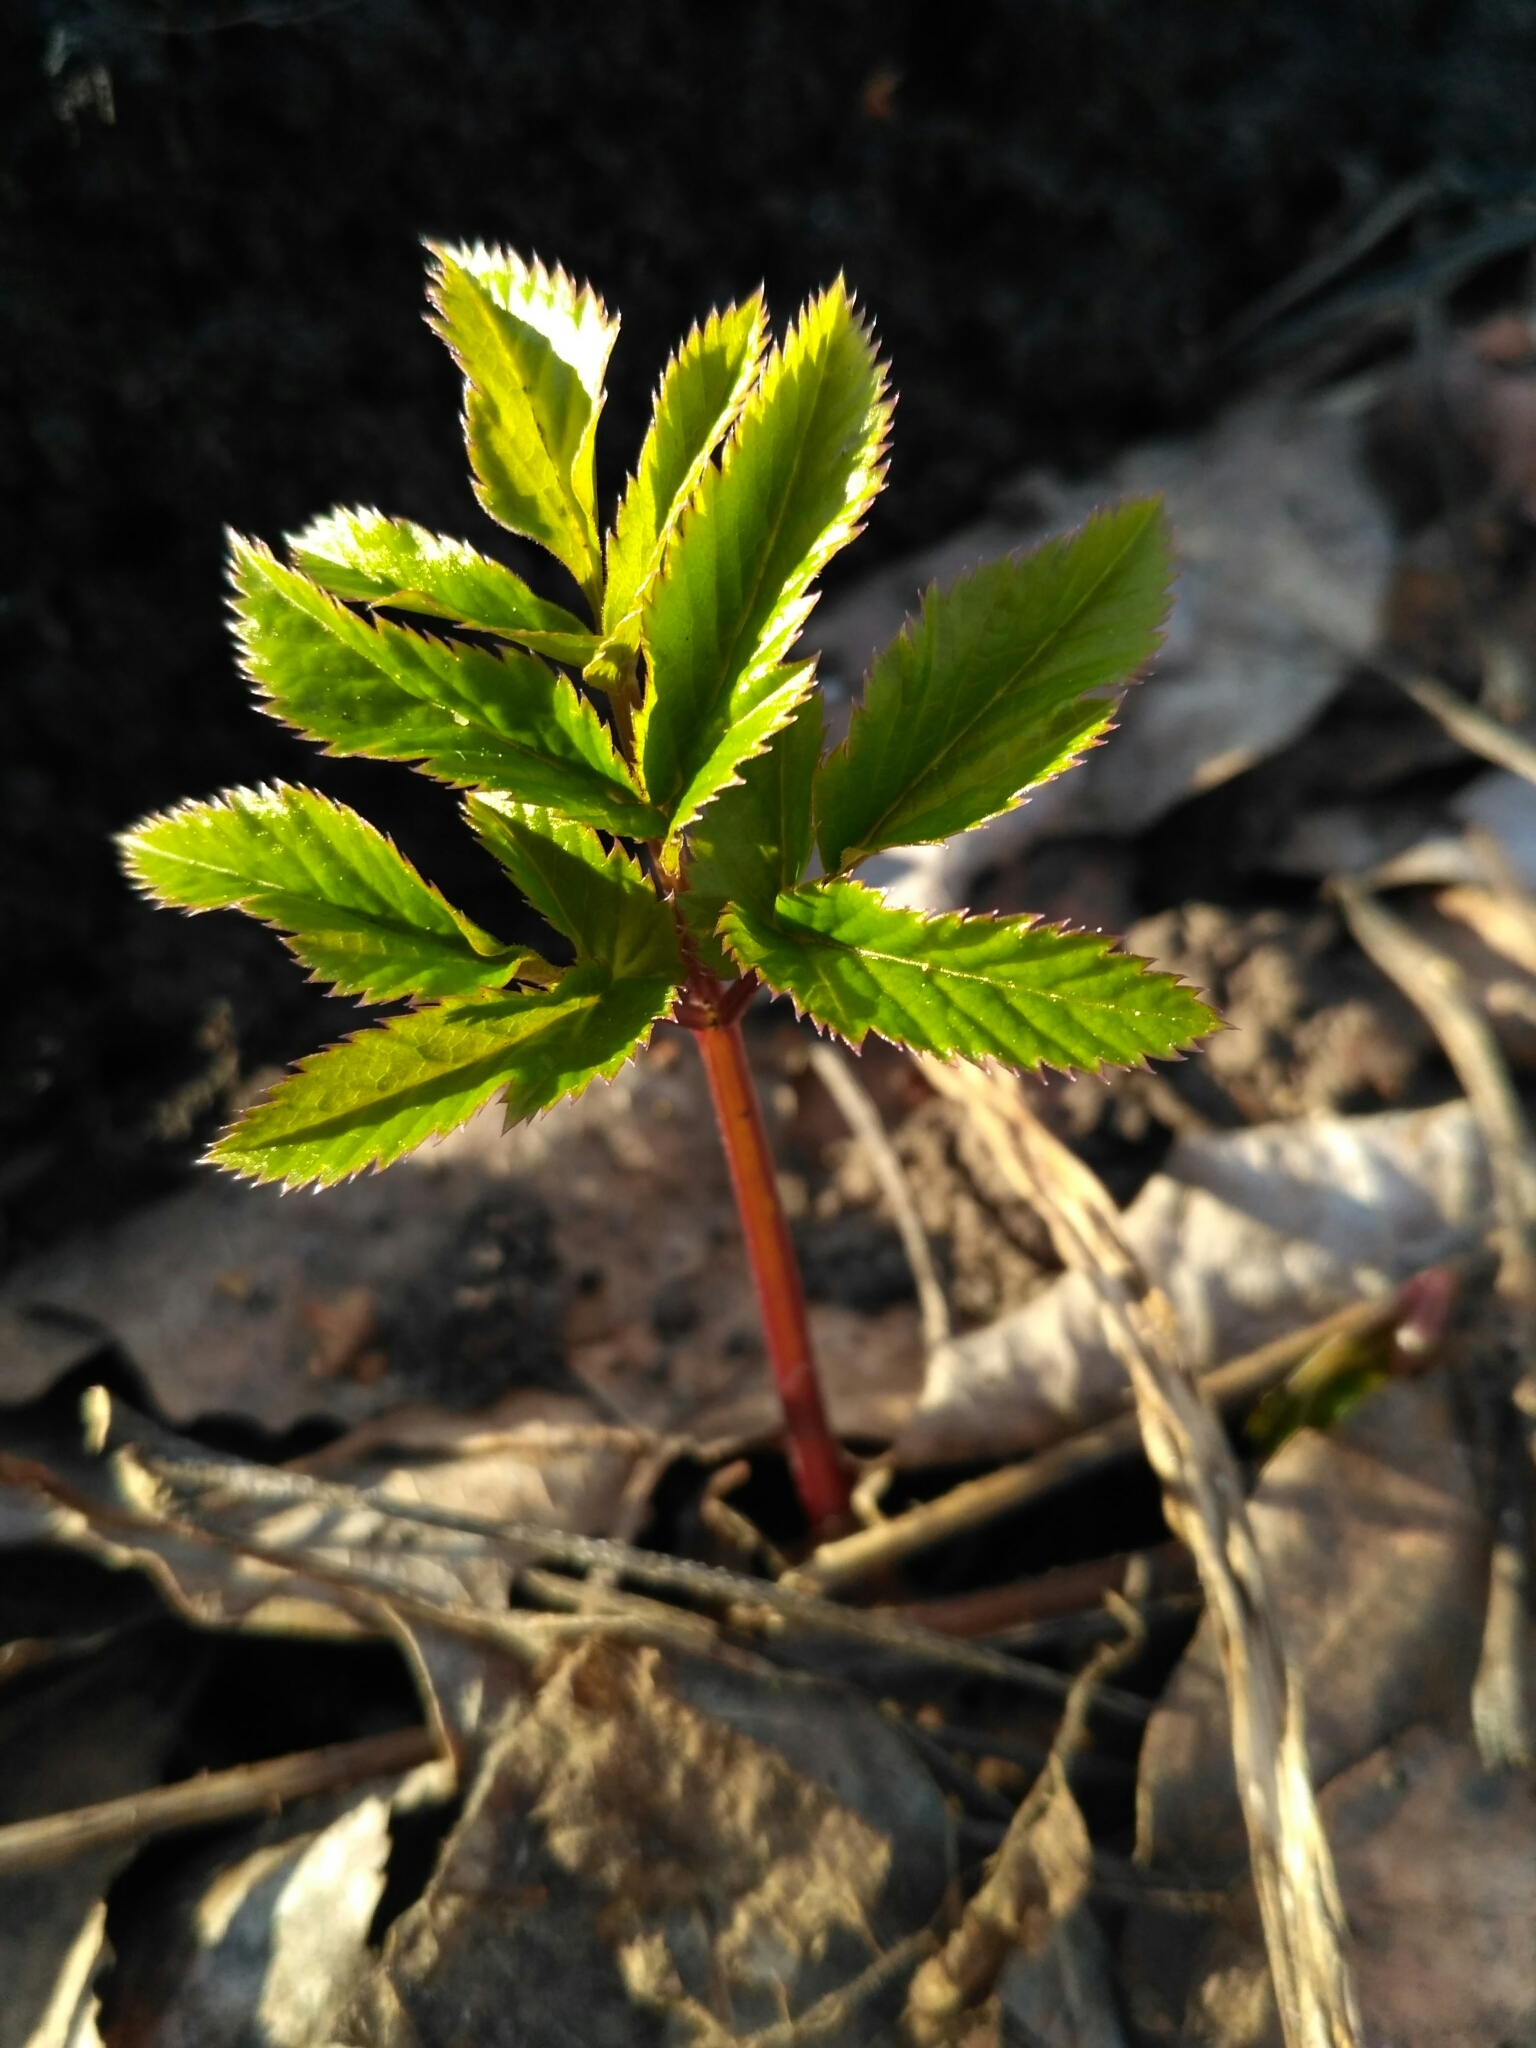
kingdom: Plantae
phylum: Tracheophyta
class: Magnoliopsida
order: Apiales
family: Apiaceae
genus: Aegopodium
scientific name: Aegopodium podagraria
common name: Ground-elder
